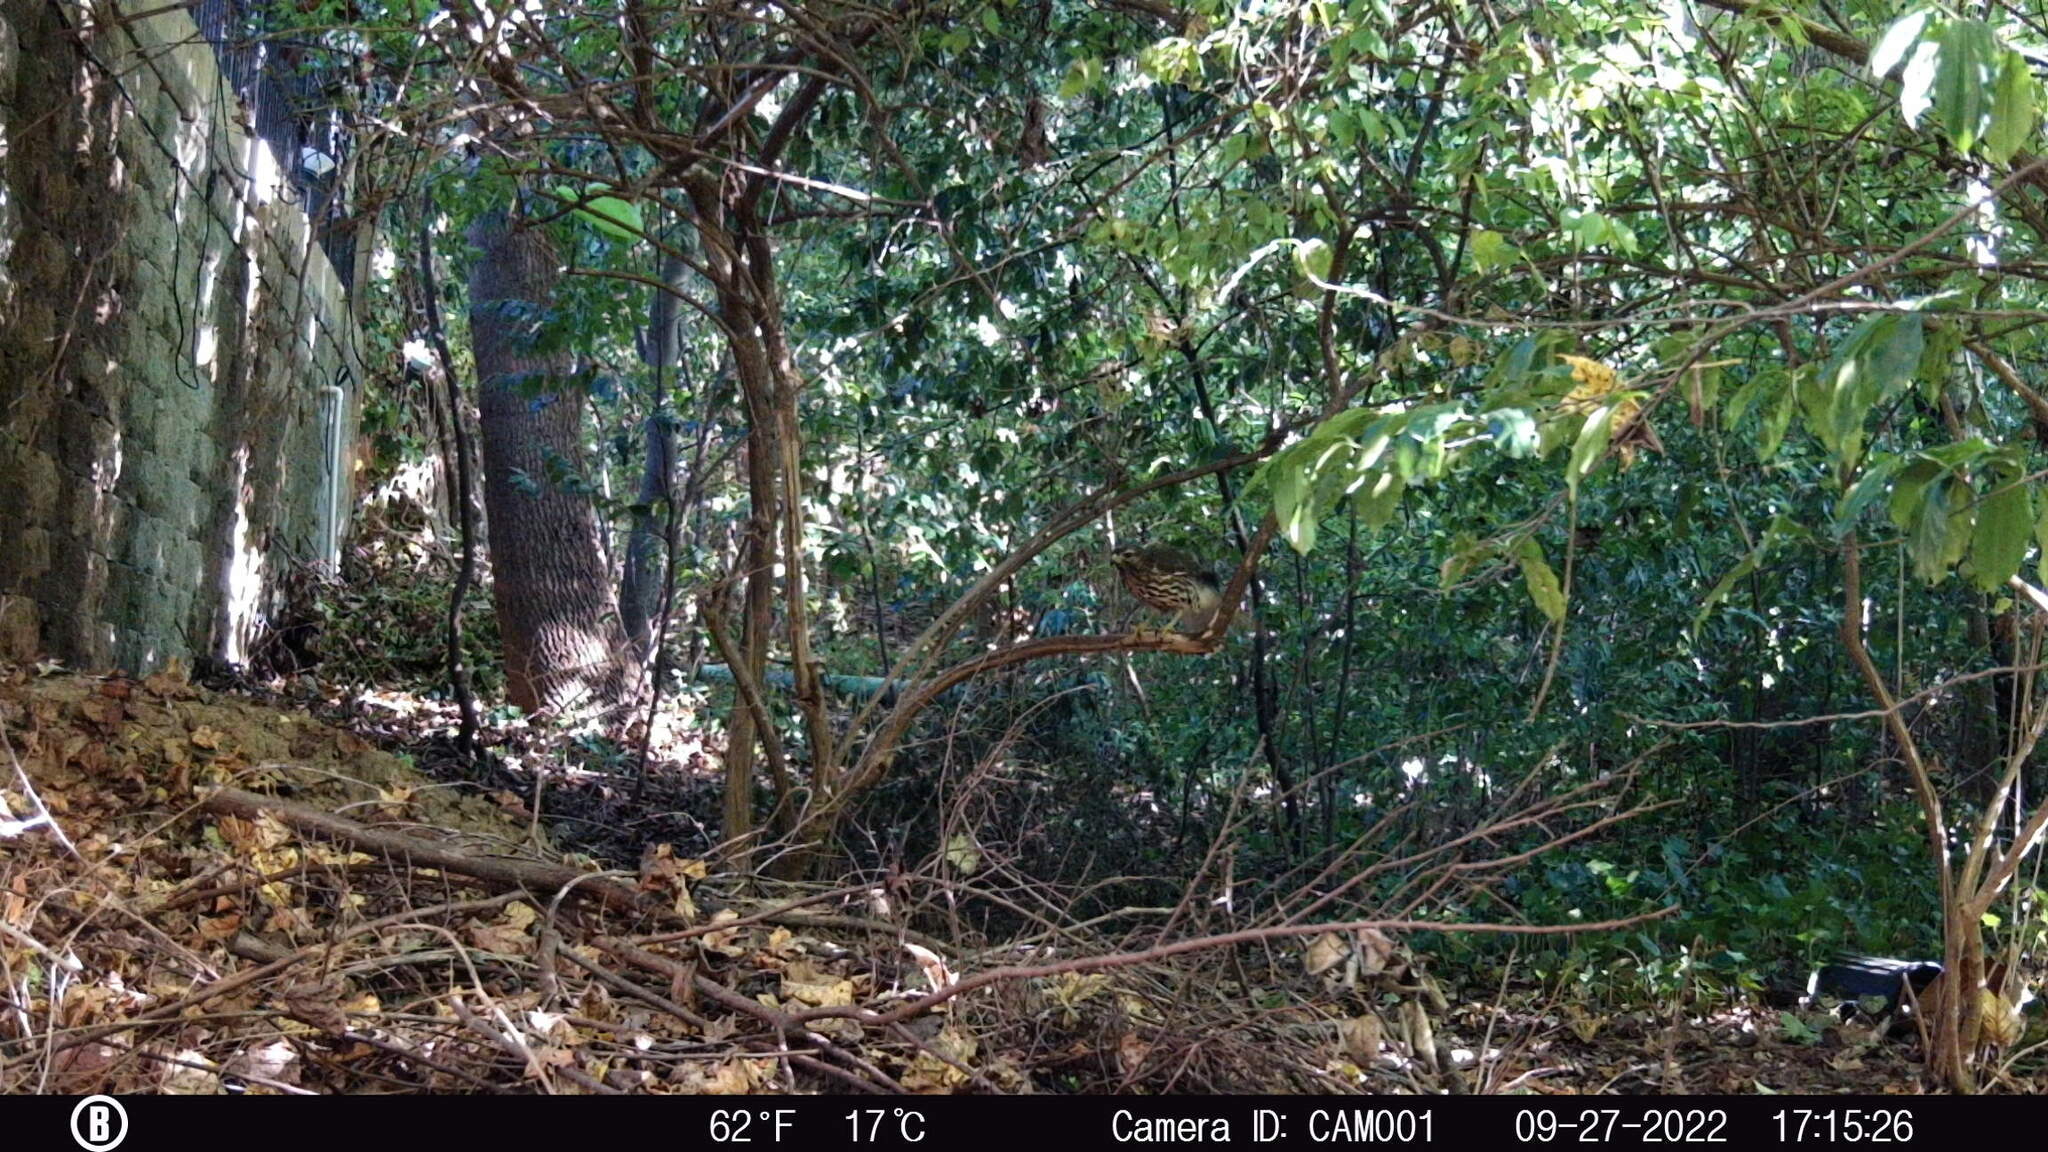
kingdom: Animalia
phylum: Chordata
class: Aves
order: Accipitriformes
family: Accipitridae
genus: Buteo
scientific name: Buteo lineatus
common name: Red-shouldered hawk
